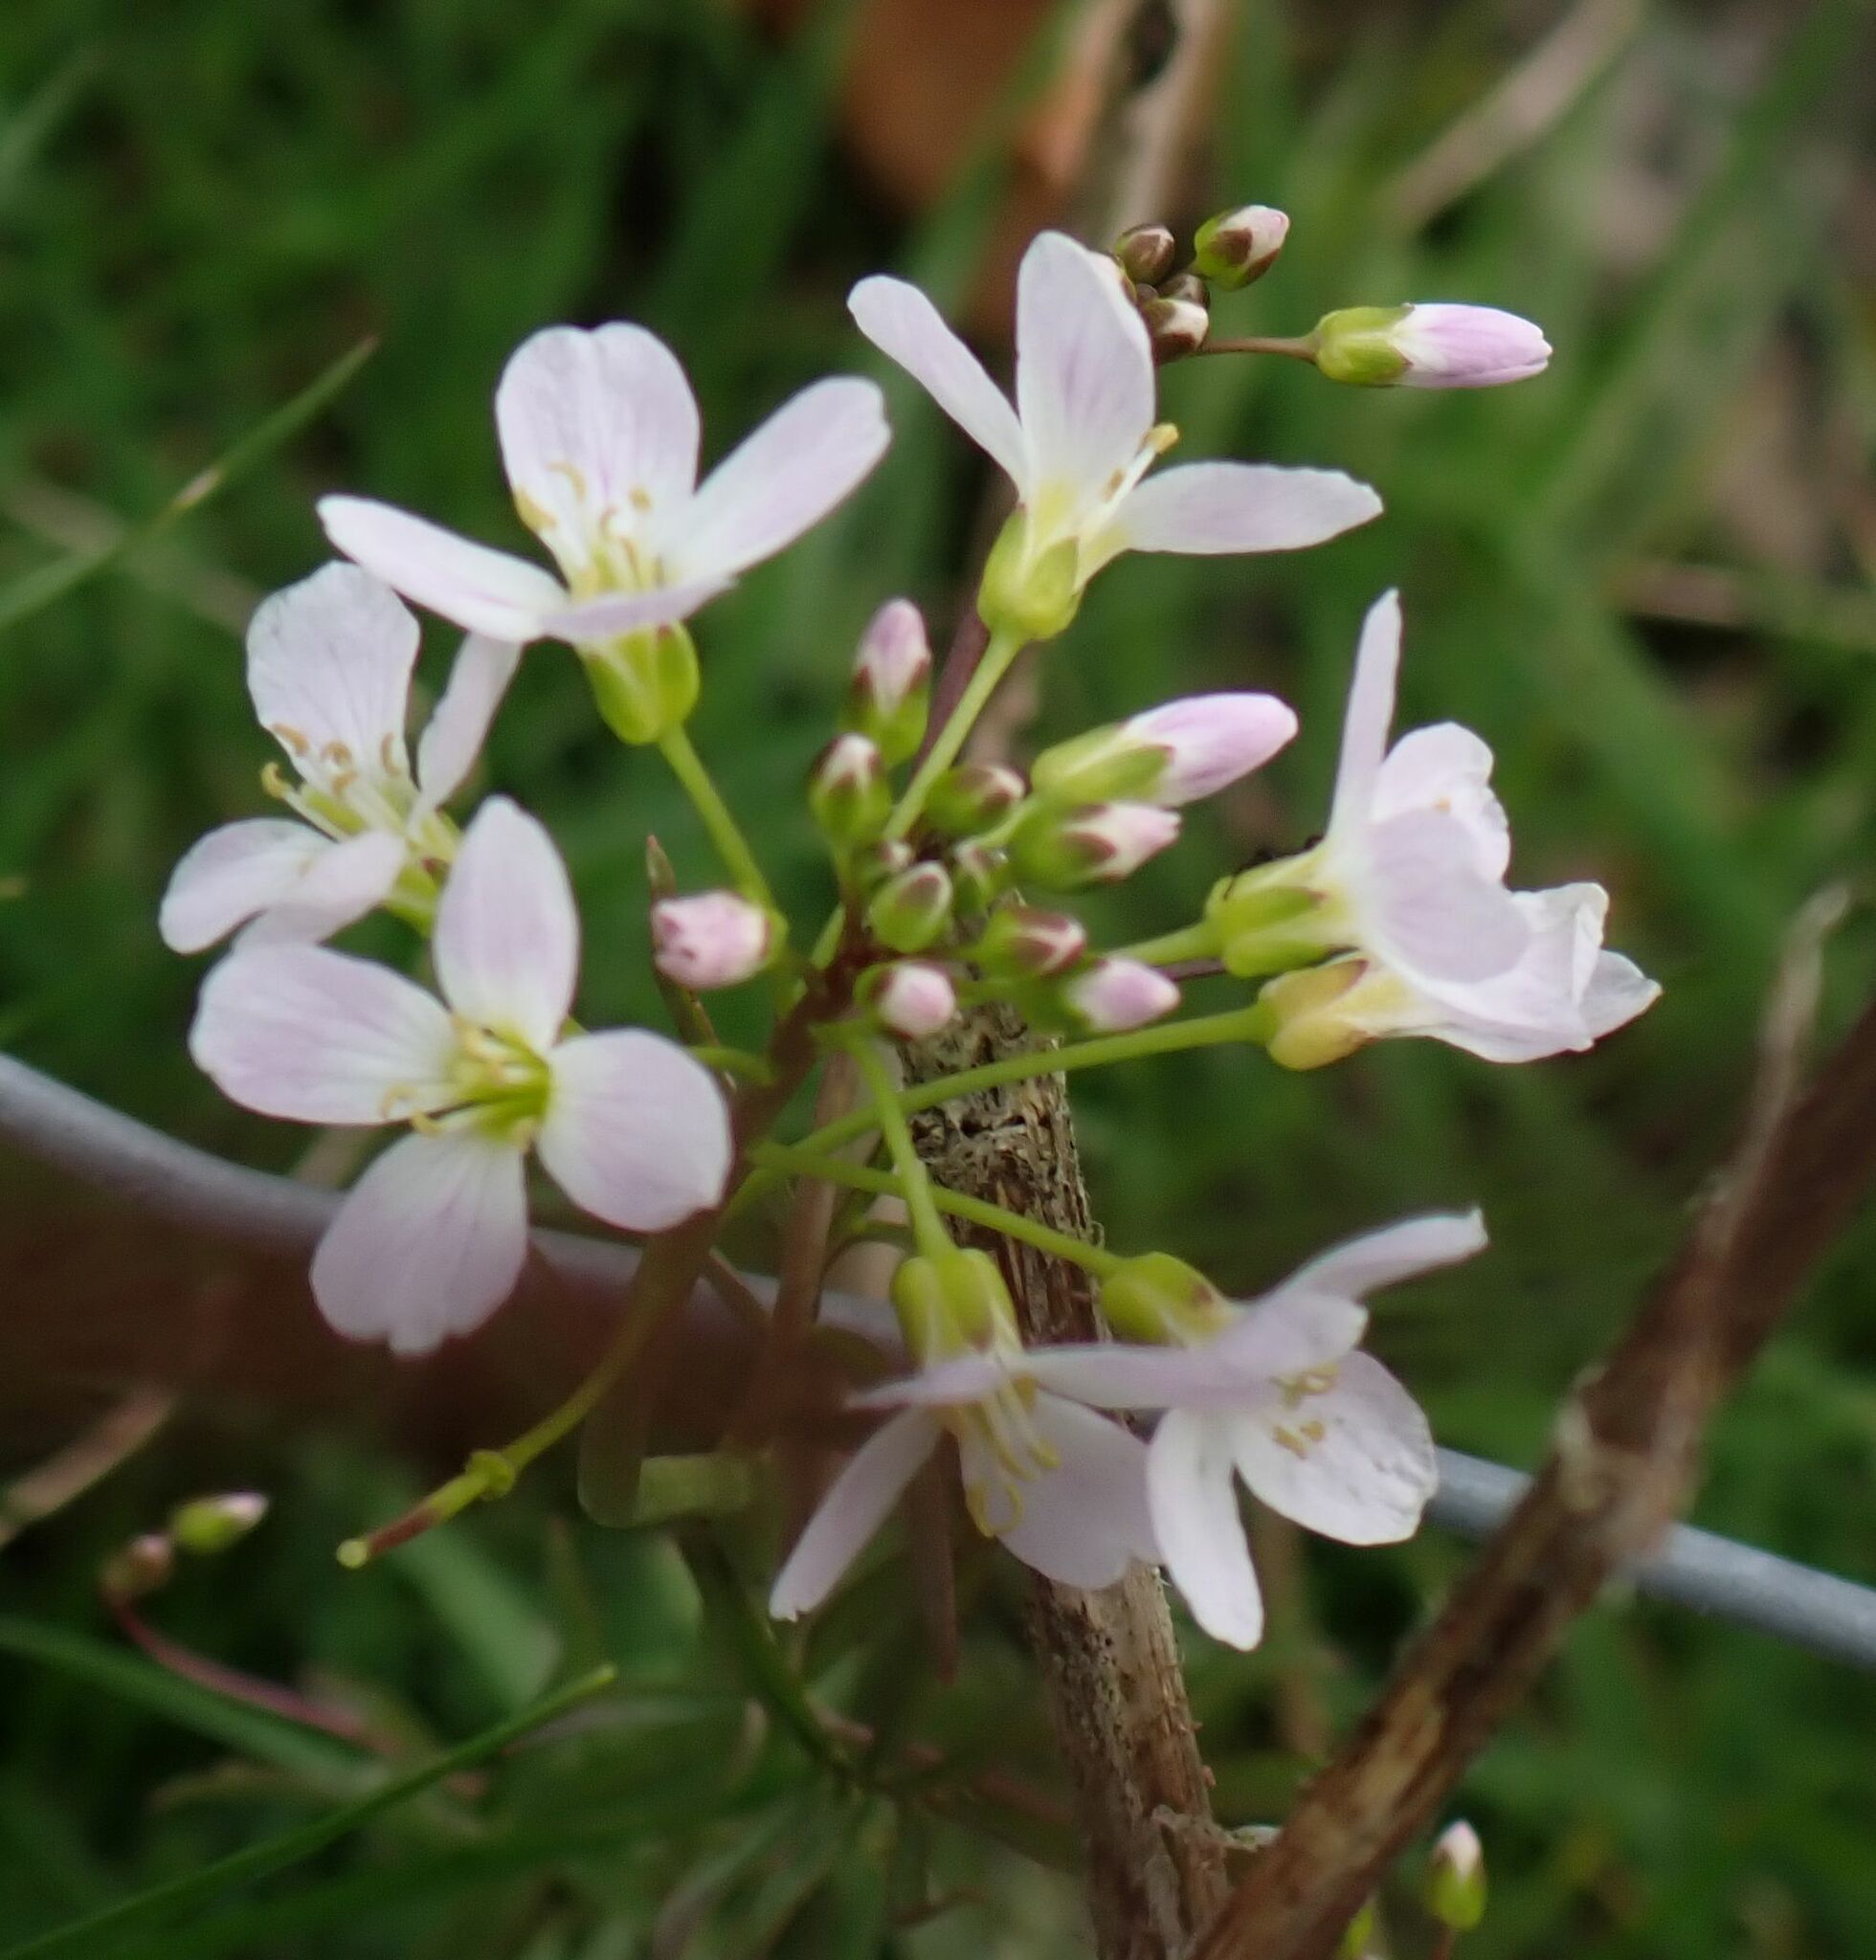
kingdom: Plantae
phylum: Tracheophyta
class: Magnoliopsida
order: Brassicales
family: Brassicaceae
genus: Cardamine
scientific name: Cardamine pratensis
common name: Cuckoo flower
